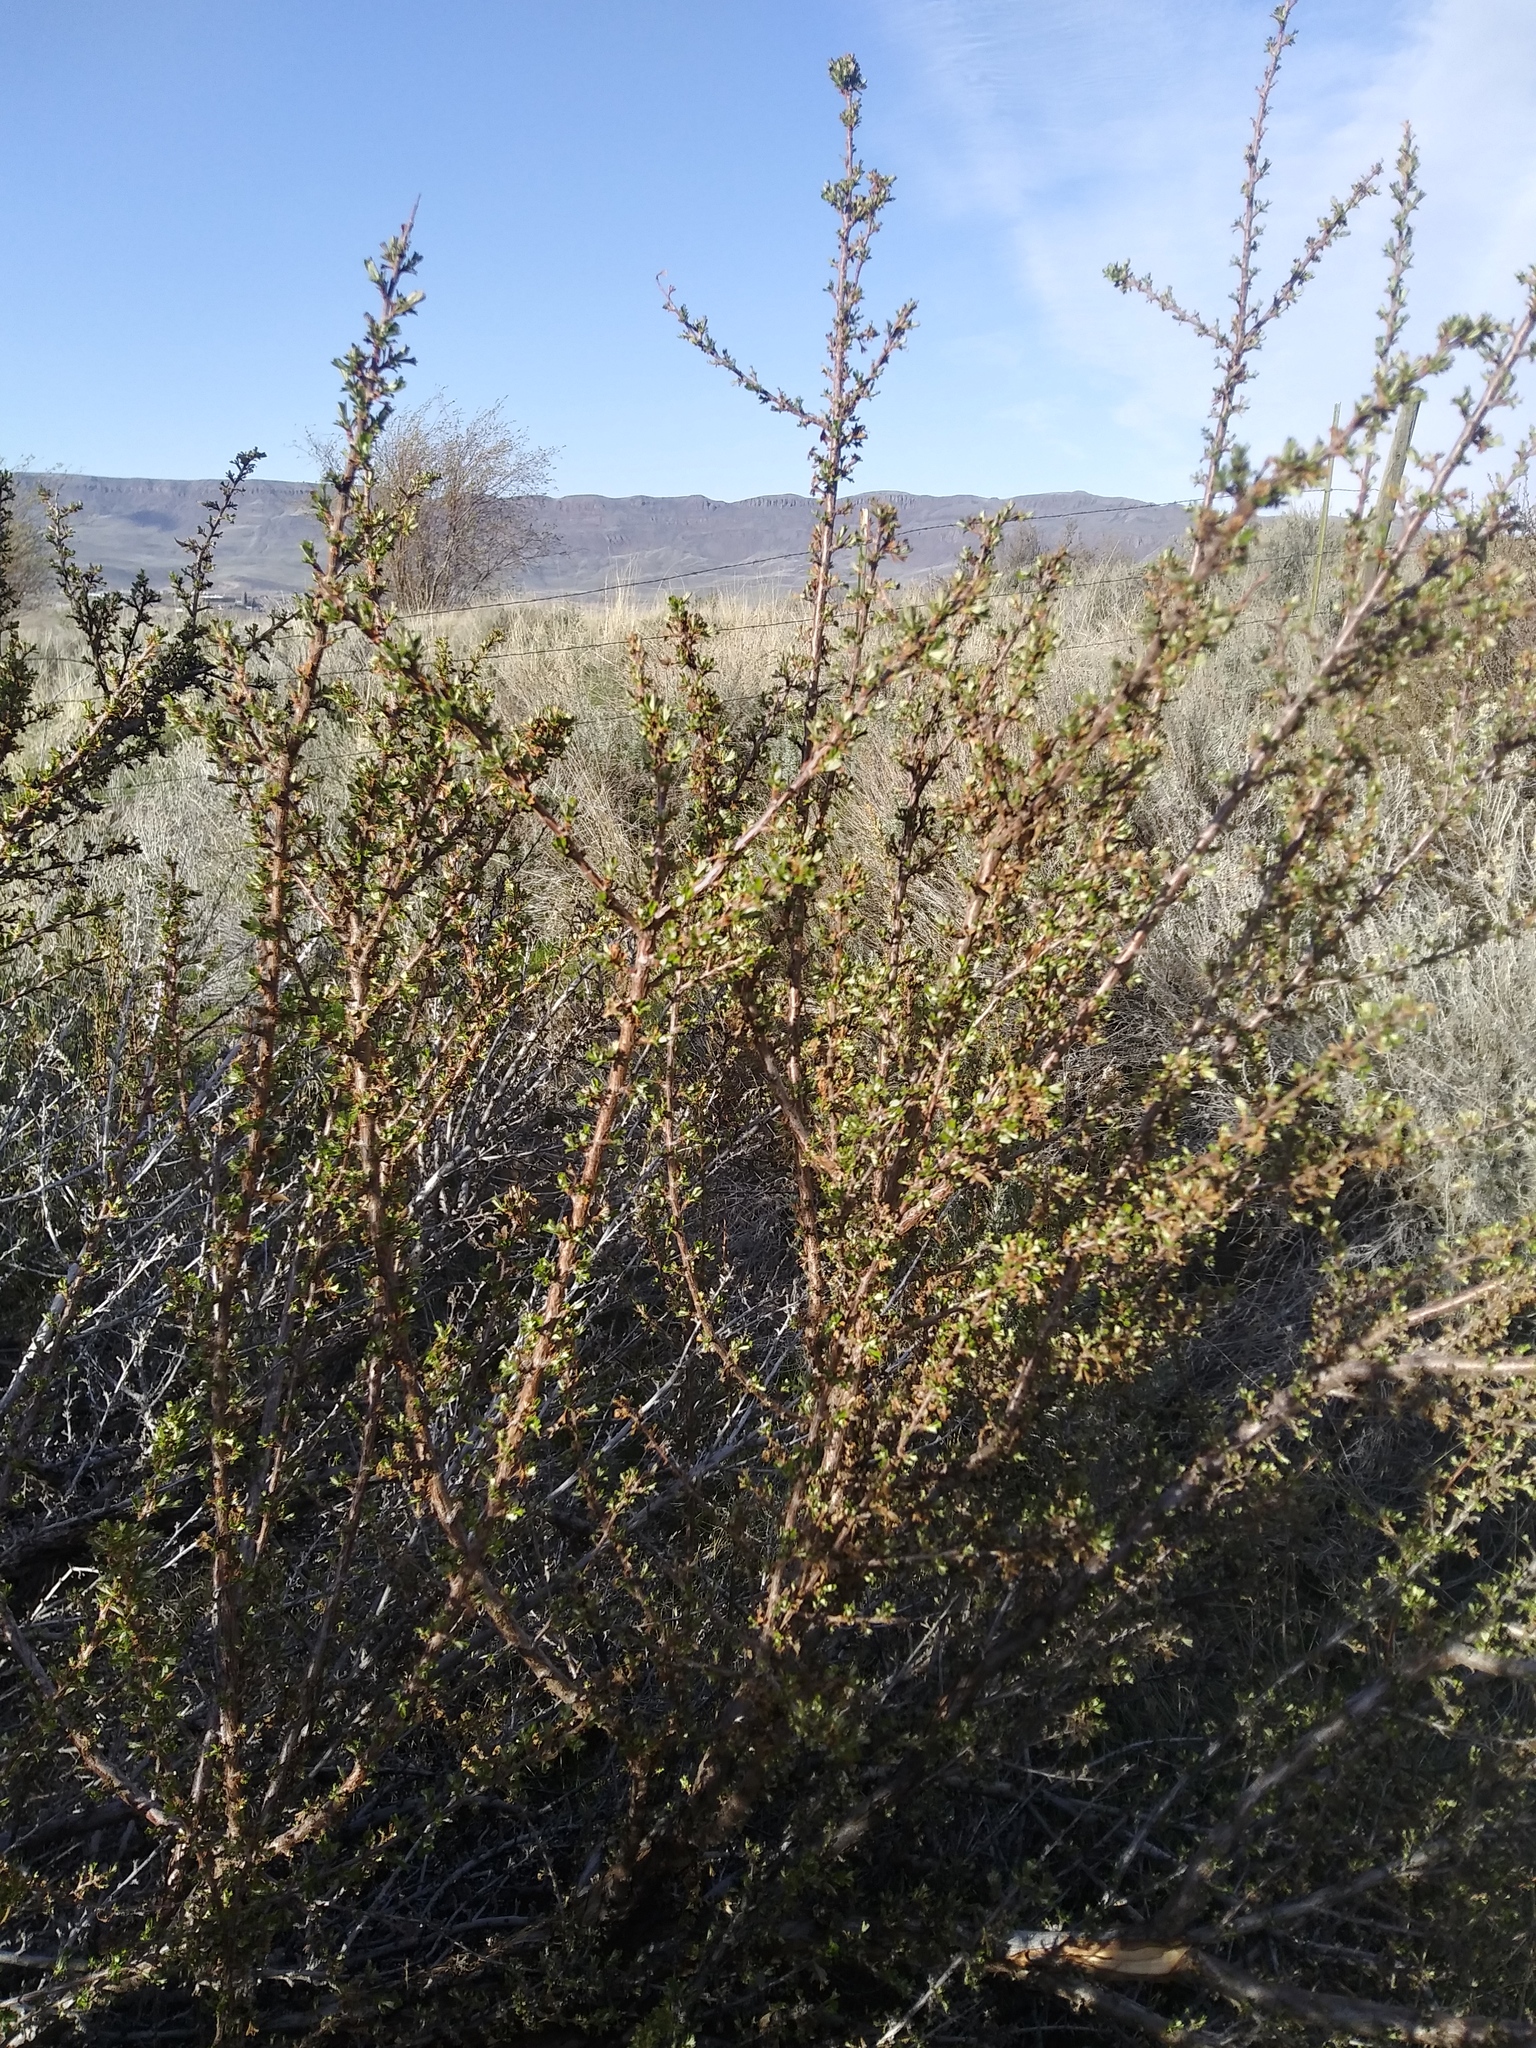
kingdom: Plantae
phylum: Tracheophyta
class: Magnoliopsida
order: Rosales
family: Rosaceae
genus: Purshia
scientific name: Purshia tridentata
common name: Antelope bitterbrush
